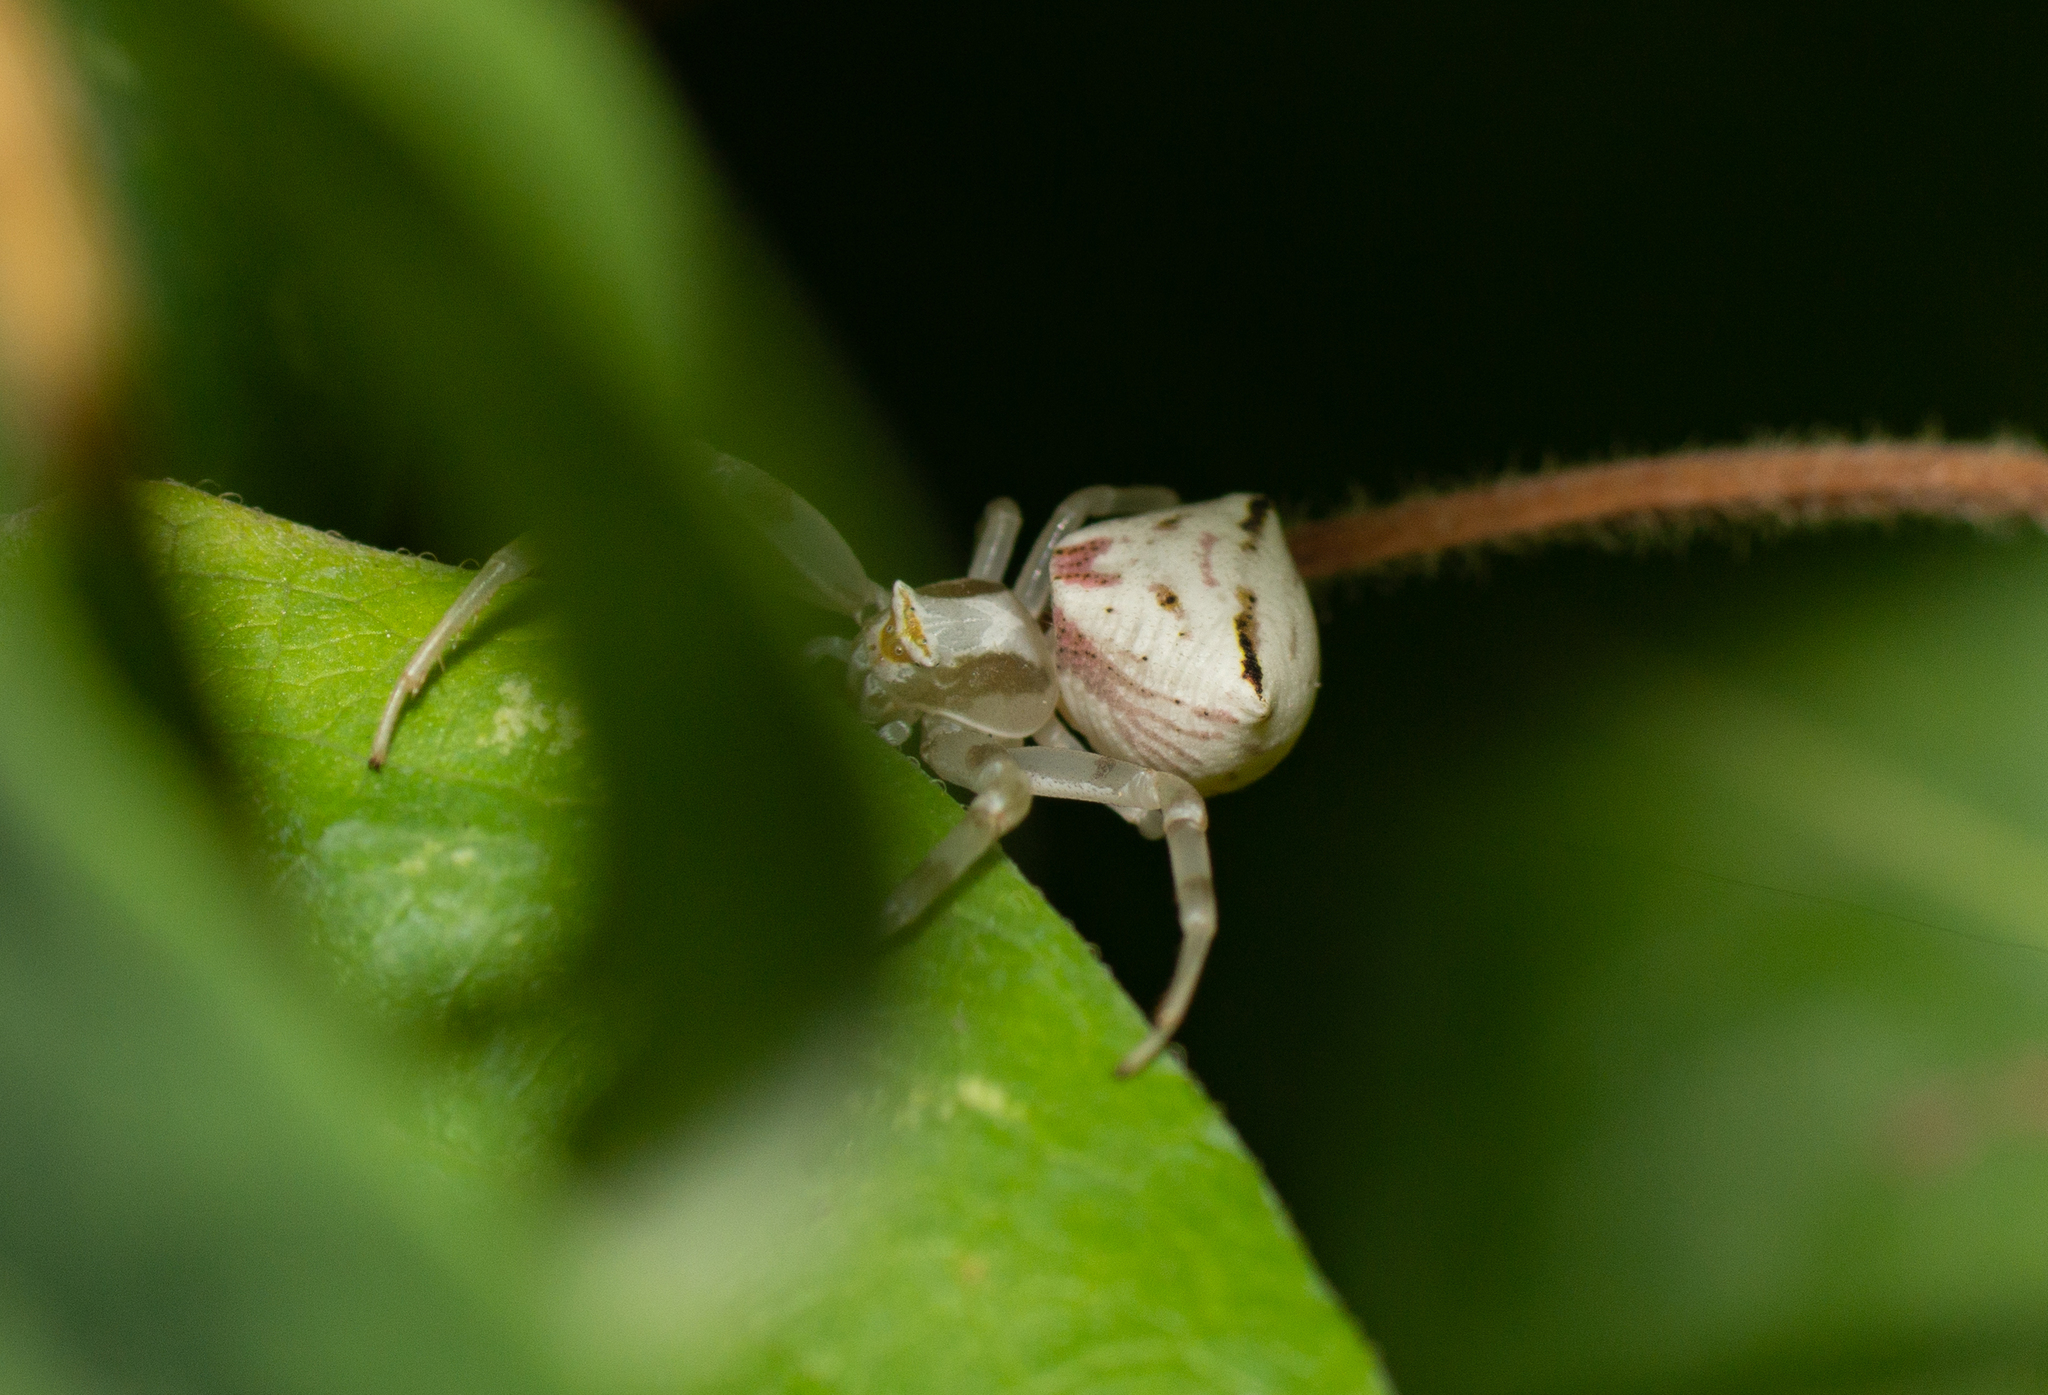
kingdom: Animalia
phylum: Arthropoda
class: Arachnida
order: Araneae
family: Thomisidae
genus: Thomisus
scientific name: Thomisus onustus
